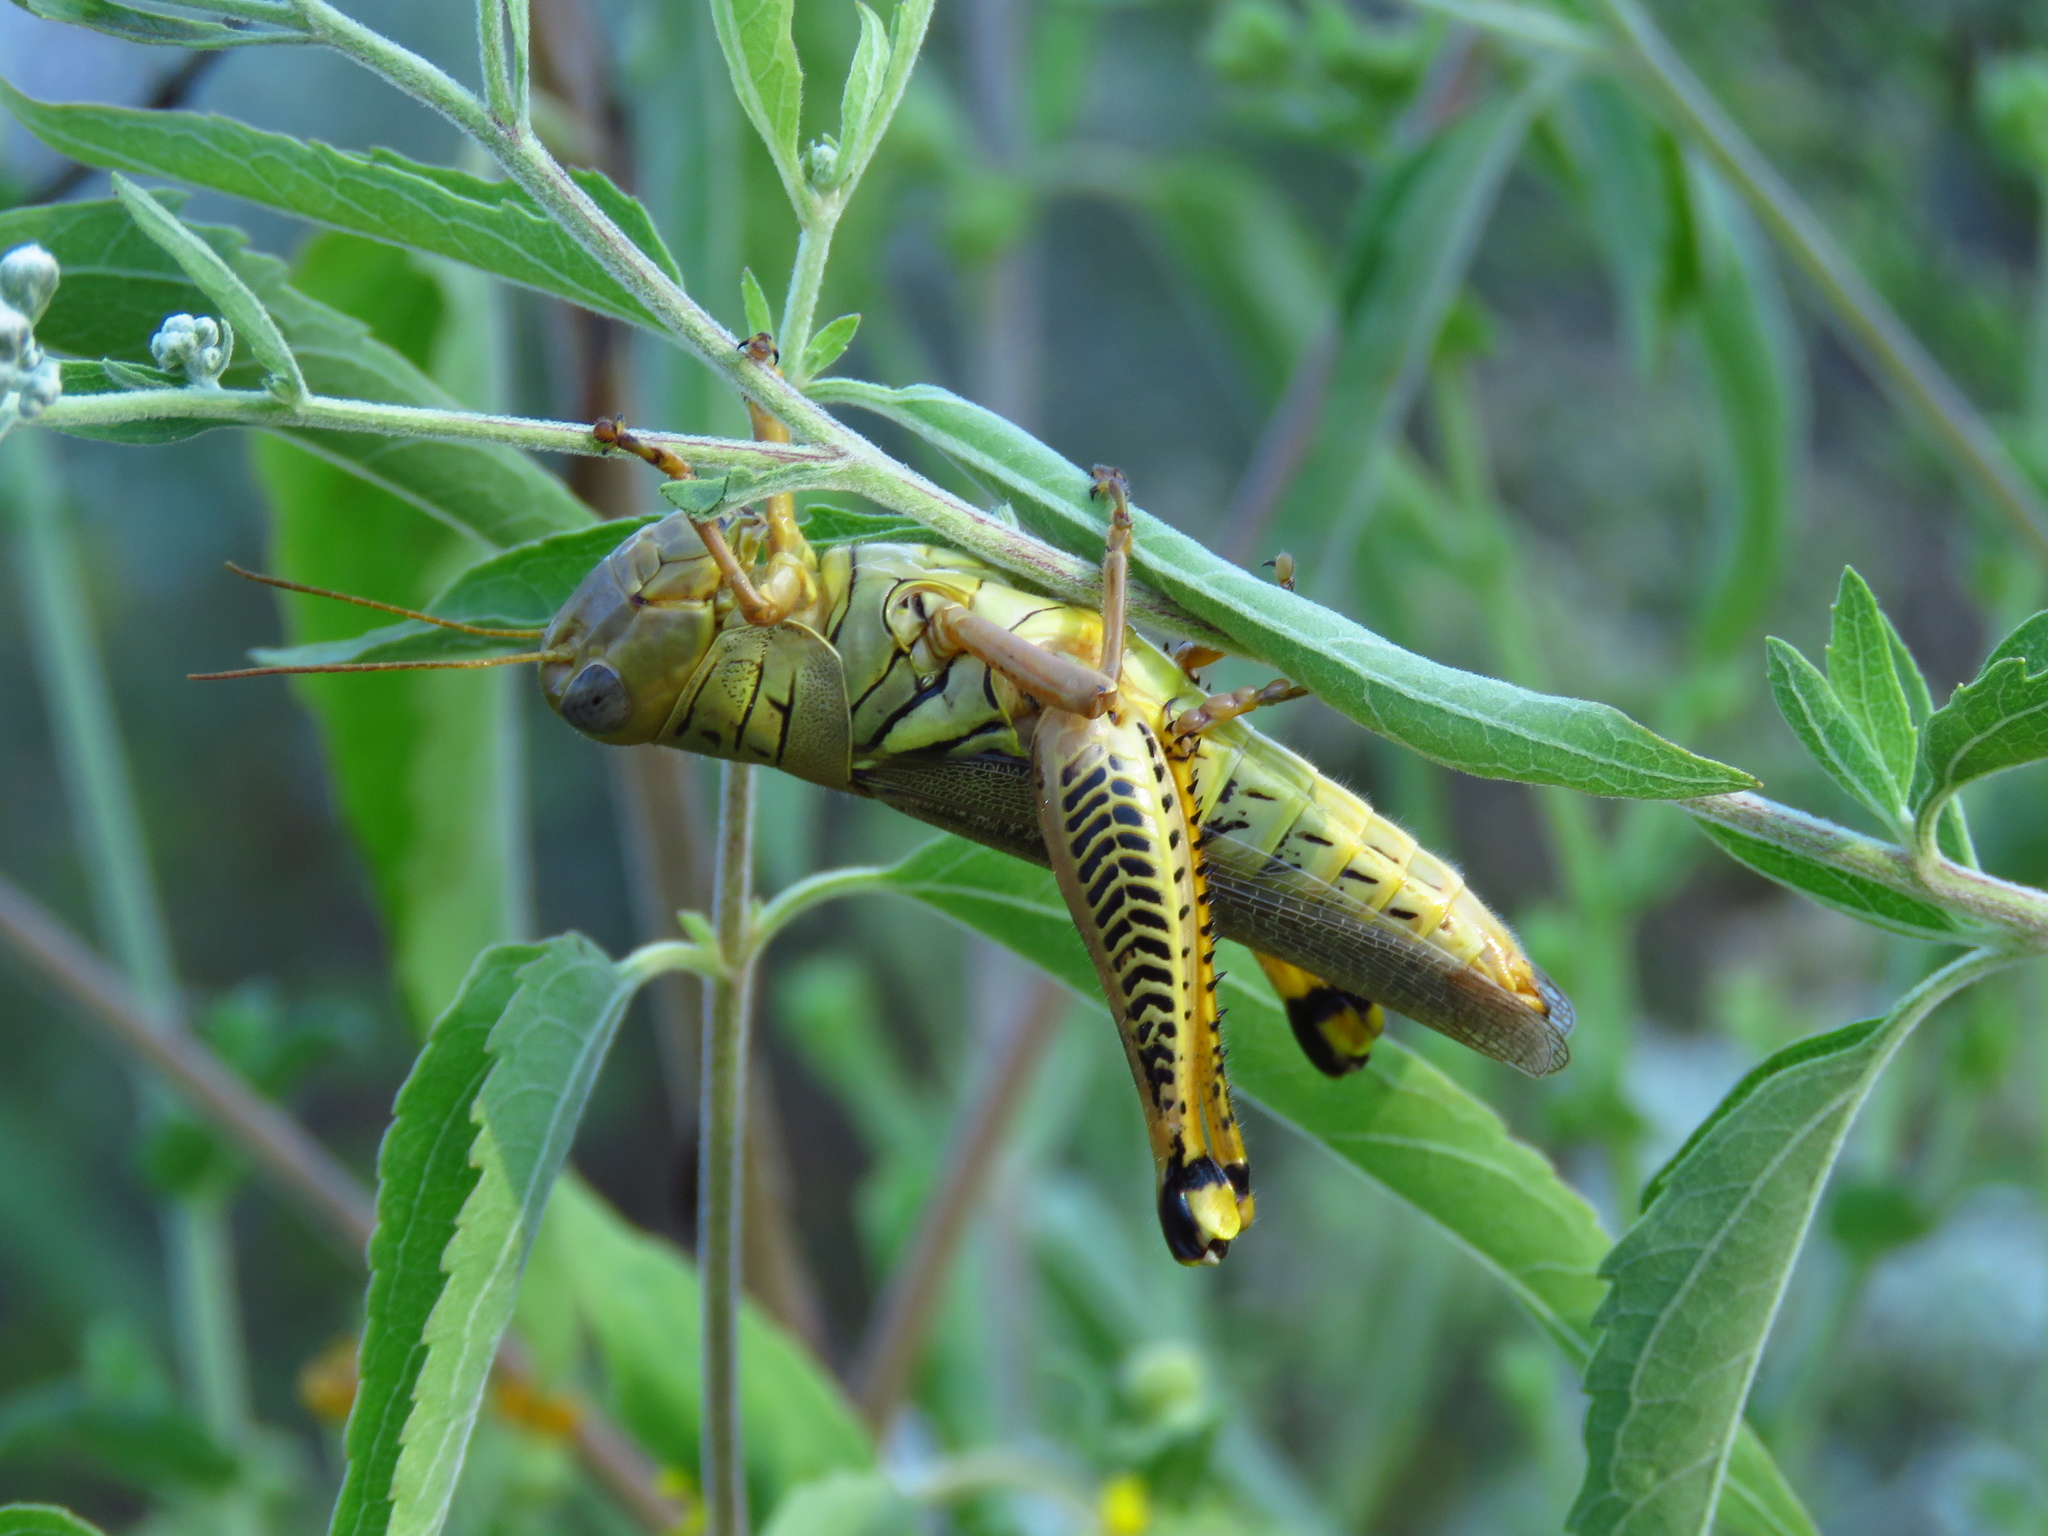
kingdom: Animalia
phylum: Arthropoda
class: Insecta
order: Orthoptera
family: Acrididae
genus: Melanoplus
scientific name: Melanoplus differentialis
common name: Differential grasshopper
